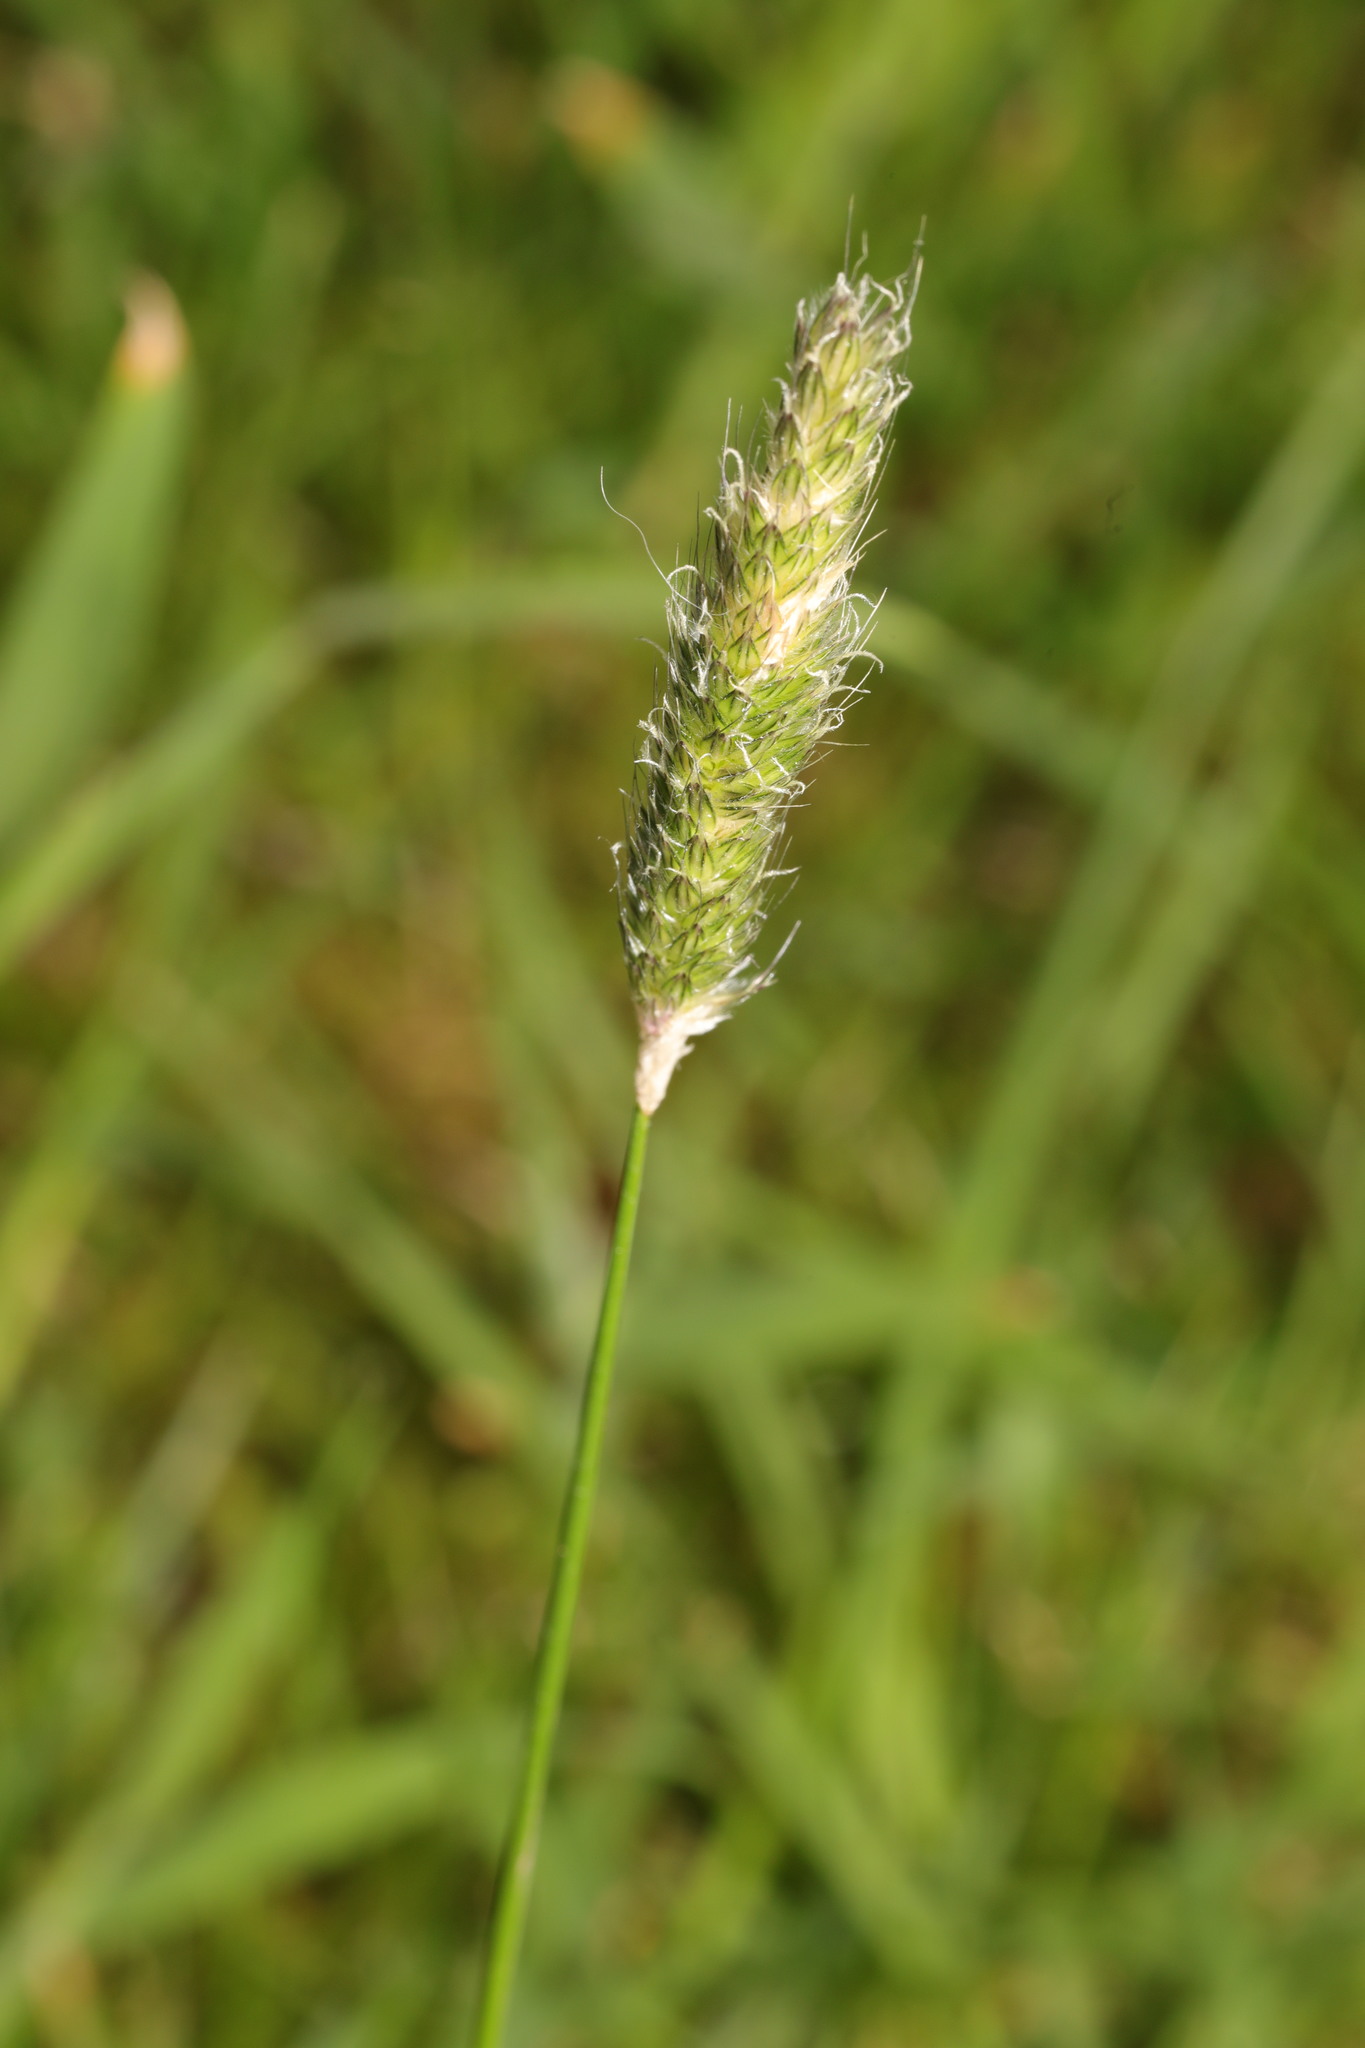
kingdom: Plantae
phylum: Tracheophyta
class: Liliopsida
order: Poales
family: Poaceae
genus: Alopecurus
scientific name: Alopecurus pratensis
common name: Meadow foxtail
